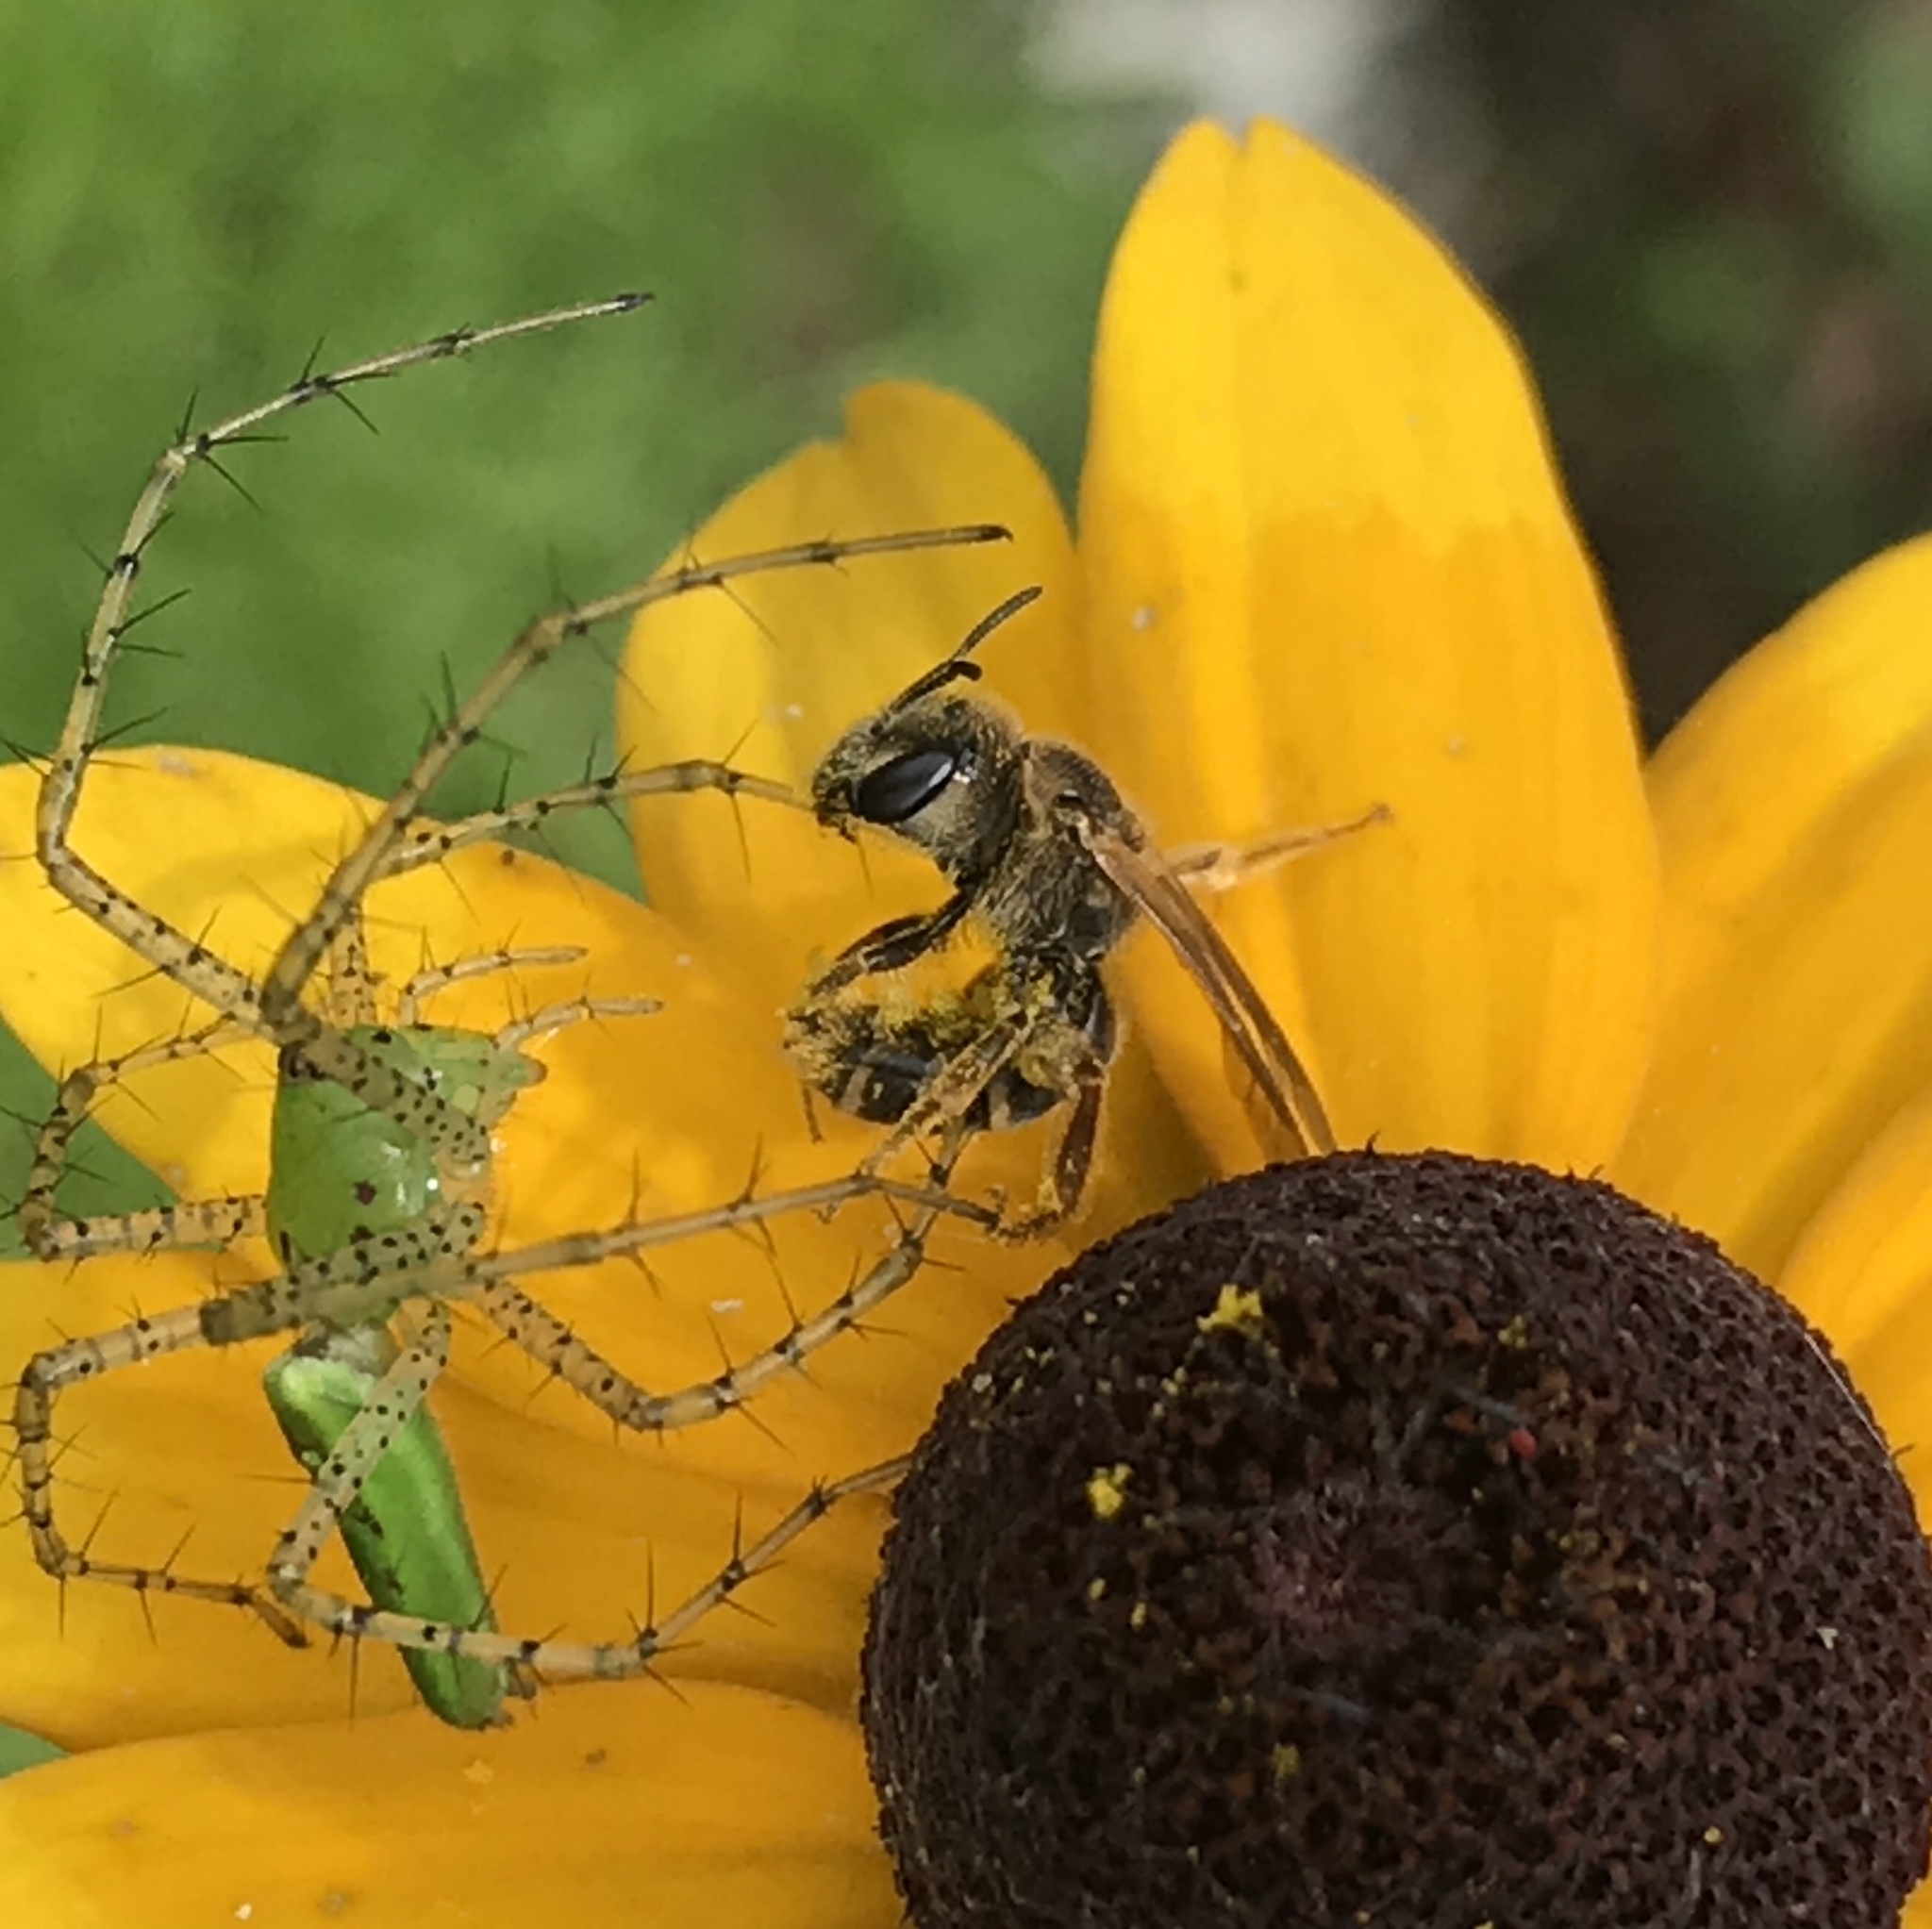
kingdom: Animalia
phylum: Arthropoda
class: Insecta
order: Hymenoptera
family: Halictidae
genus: Halictus
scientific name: Halictus ligatus
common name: Ligated furrow bee
